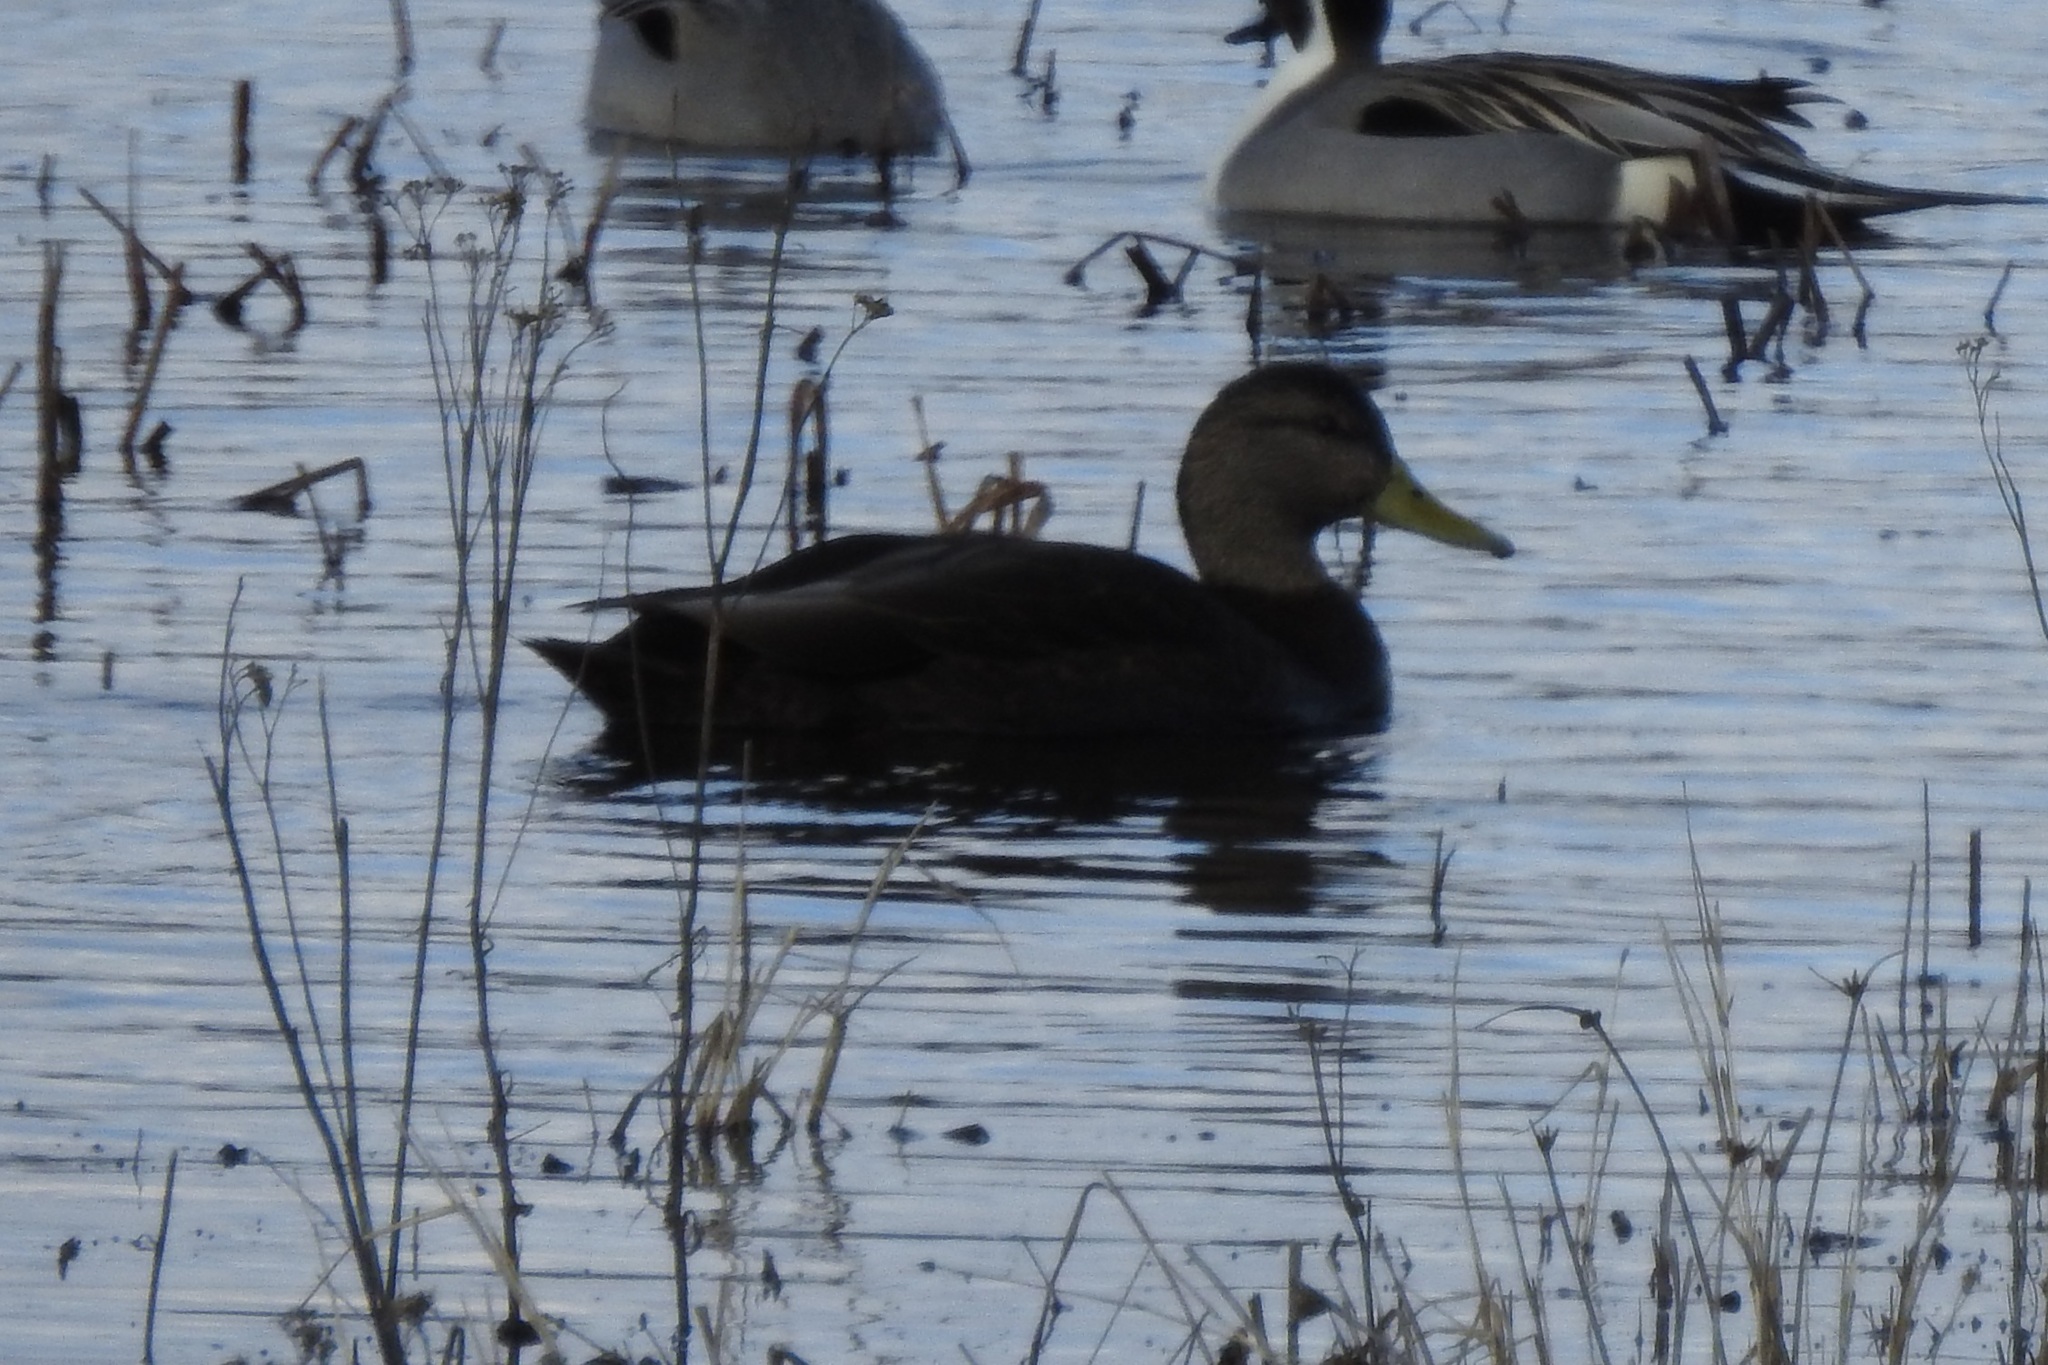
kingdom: Animalia
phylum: Chordata
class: Aves
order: Anseriformes
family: Anatidae
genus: Anas
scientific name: Anas rubripes
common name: American black duck
